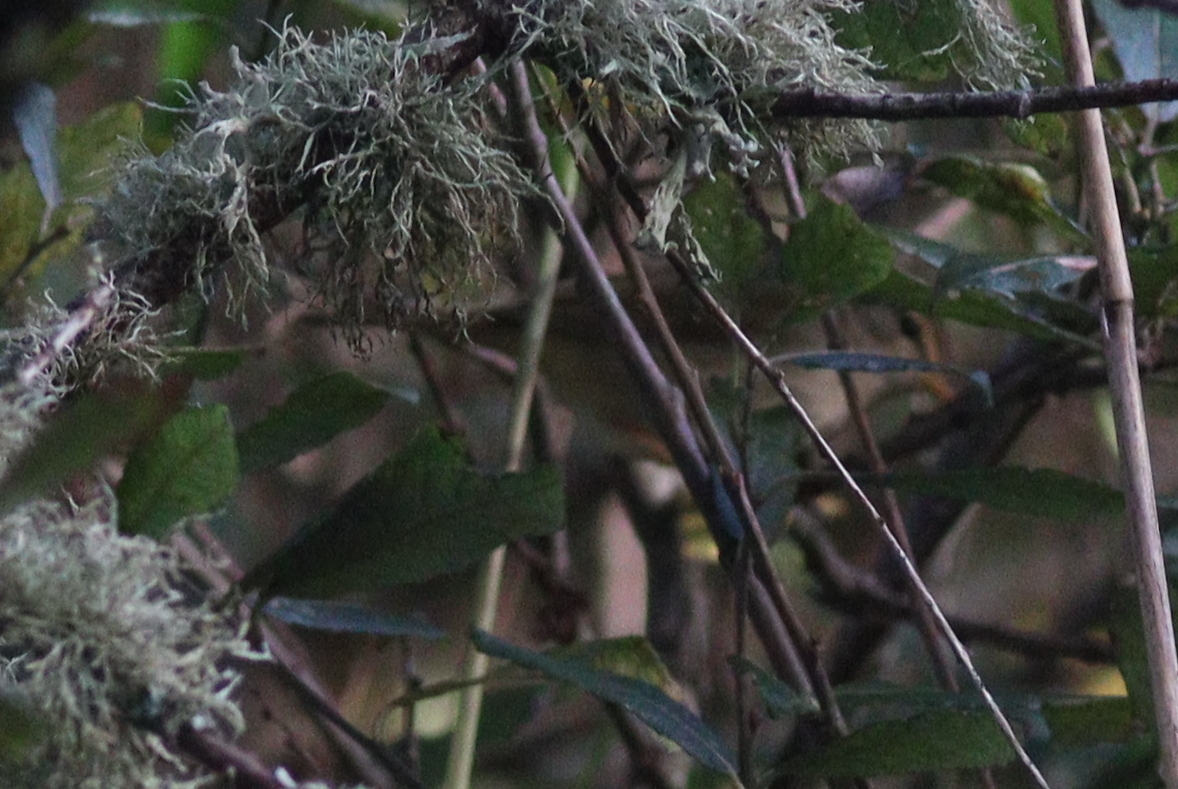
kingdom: Animalia
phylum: Chordata
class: Aves
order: Passeriformes
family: Phylloscopidae
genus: Phylloscopus
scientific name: Phylloscopus schwarzi
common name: Radde's warbler
